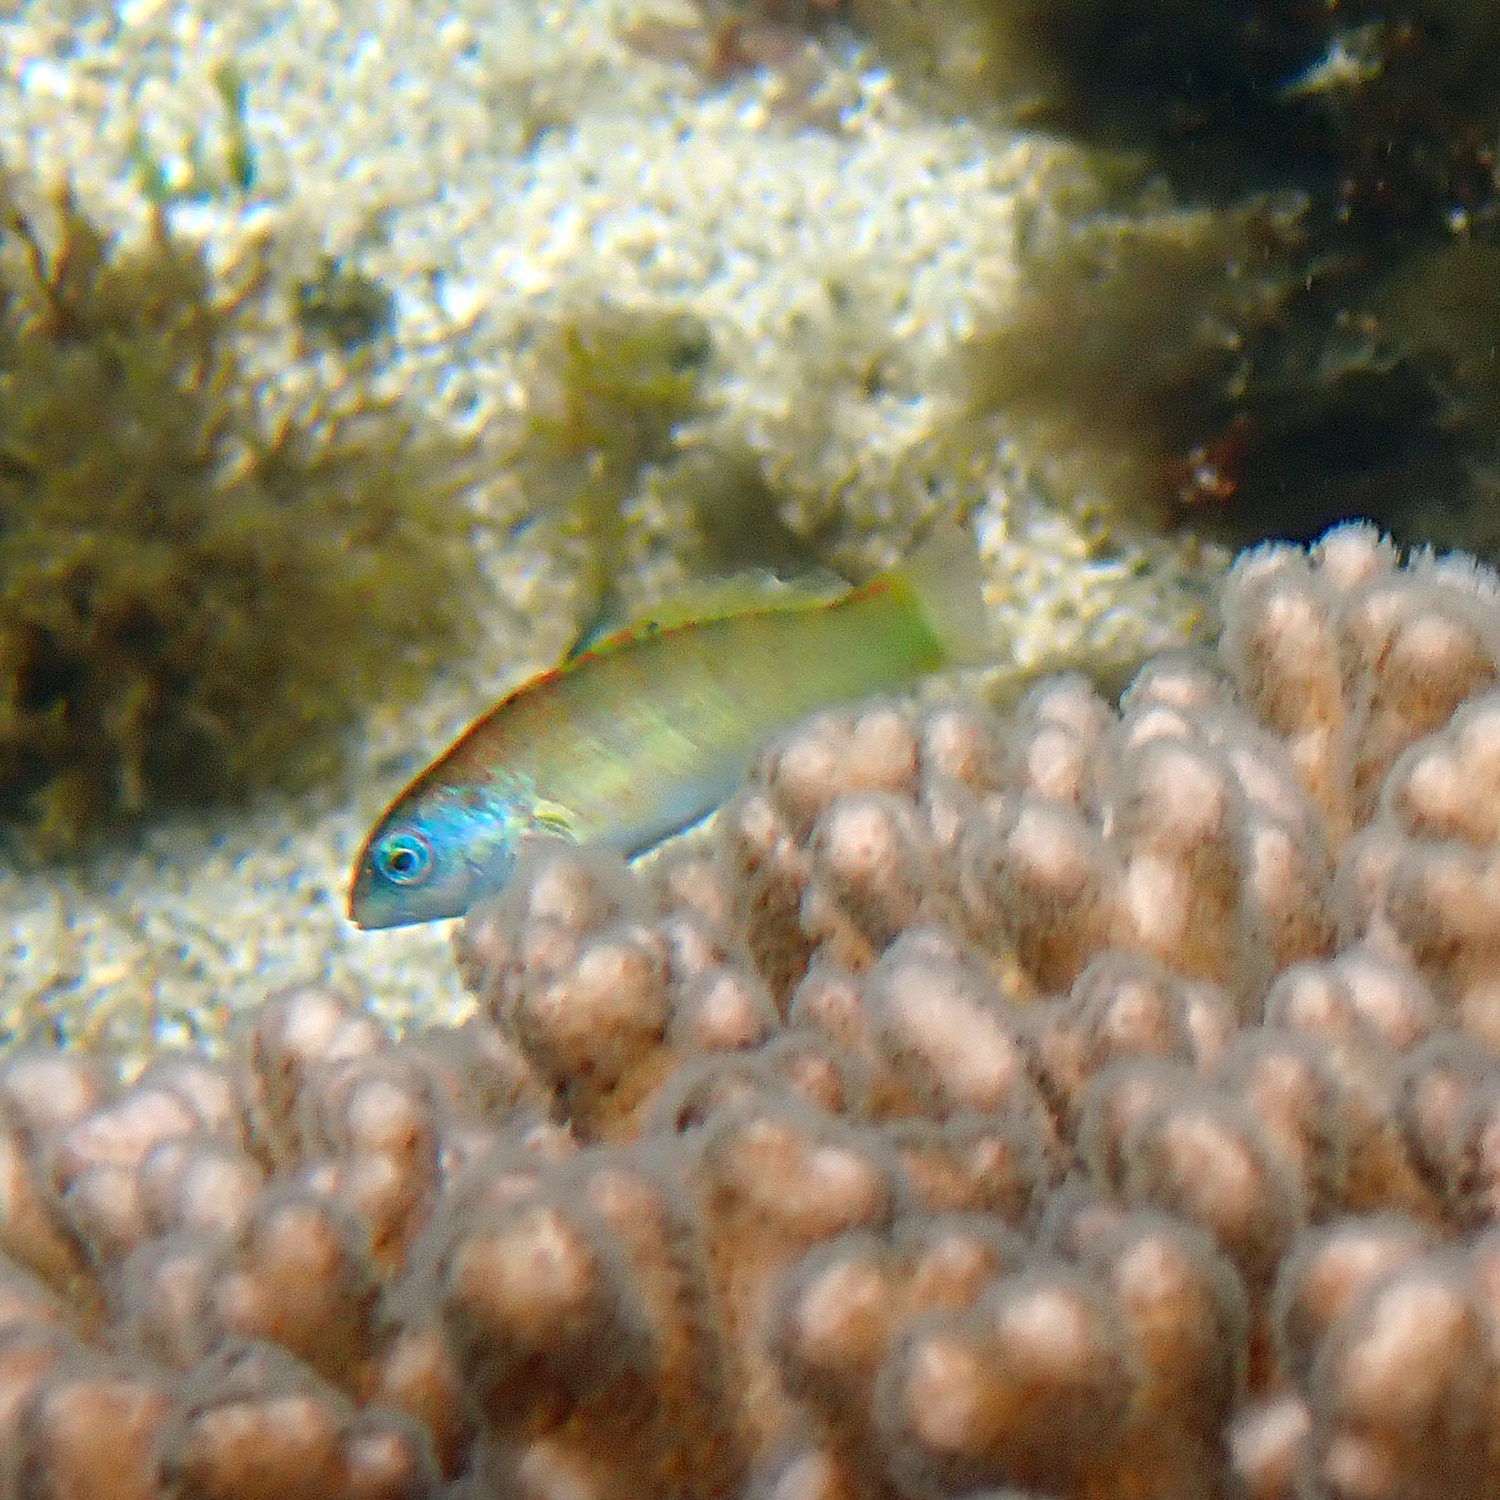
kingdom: Animalia
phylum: Chordata
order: Perciformes
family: Labridae
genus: Thalassoma
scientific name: Thalassoma hardwicke
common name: Sixbar wrasse
